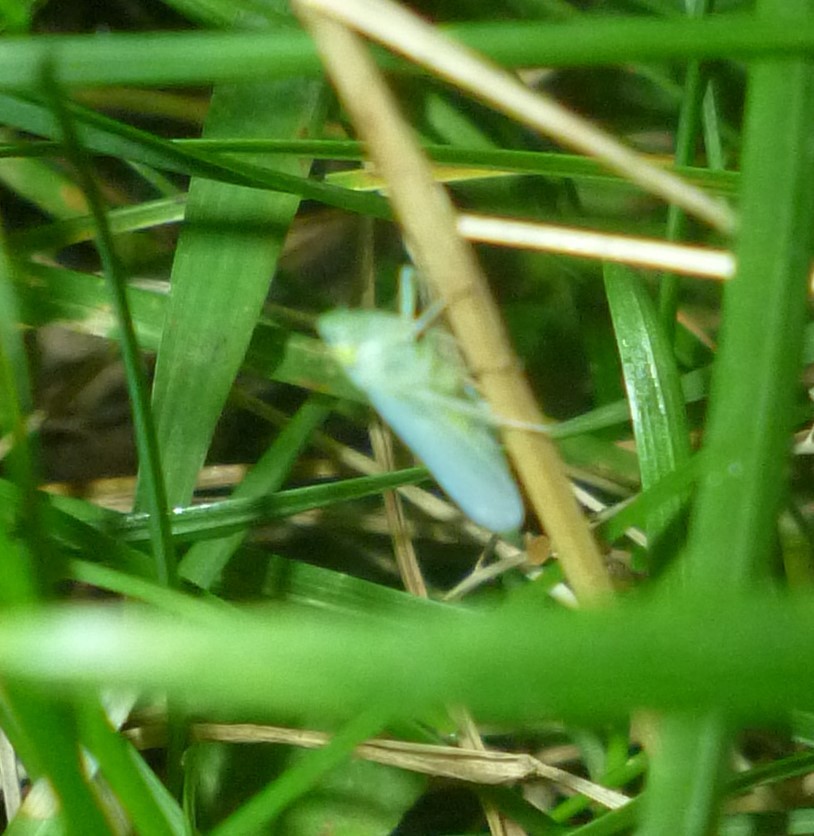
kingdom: Animalia
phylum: Arthropoda
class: Insecta
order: Hemiptera
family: Cicadellidae
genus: Pagaronia
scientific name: Pagaronia minor
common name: Leafhopper
